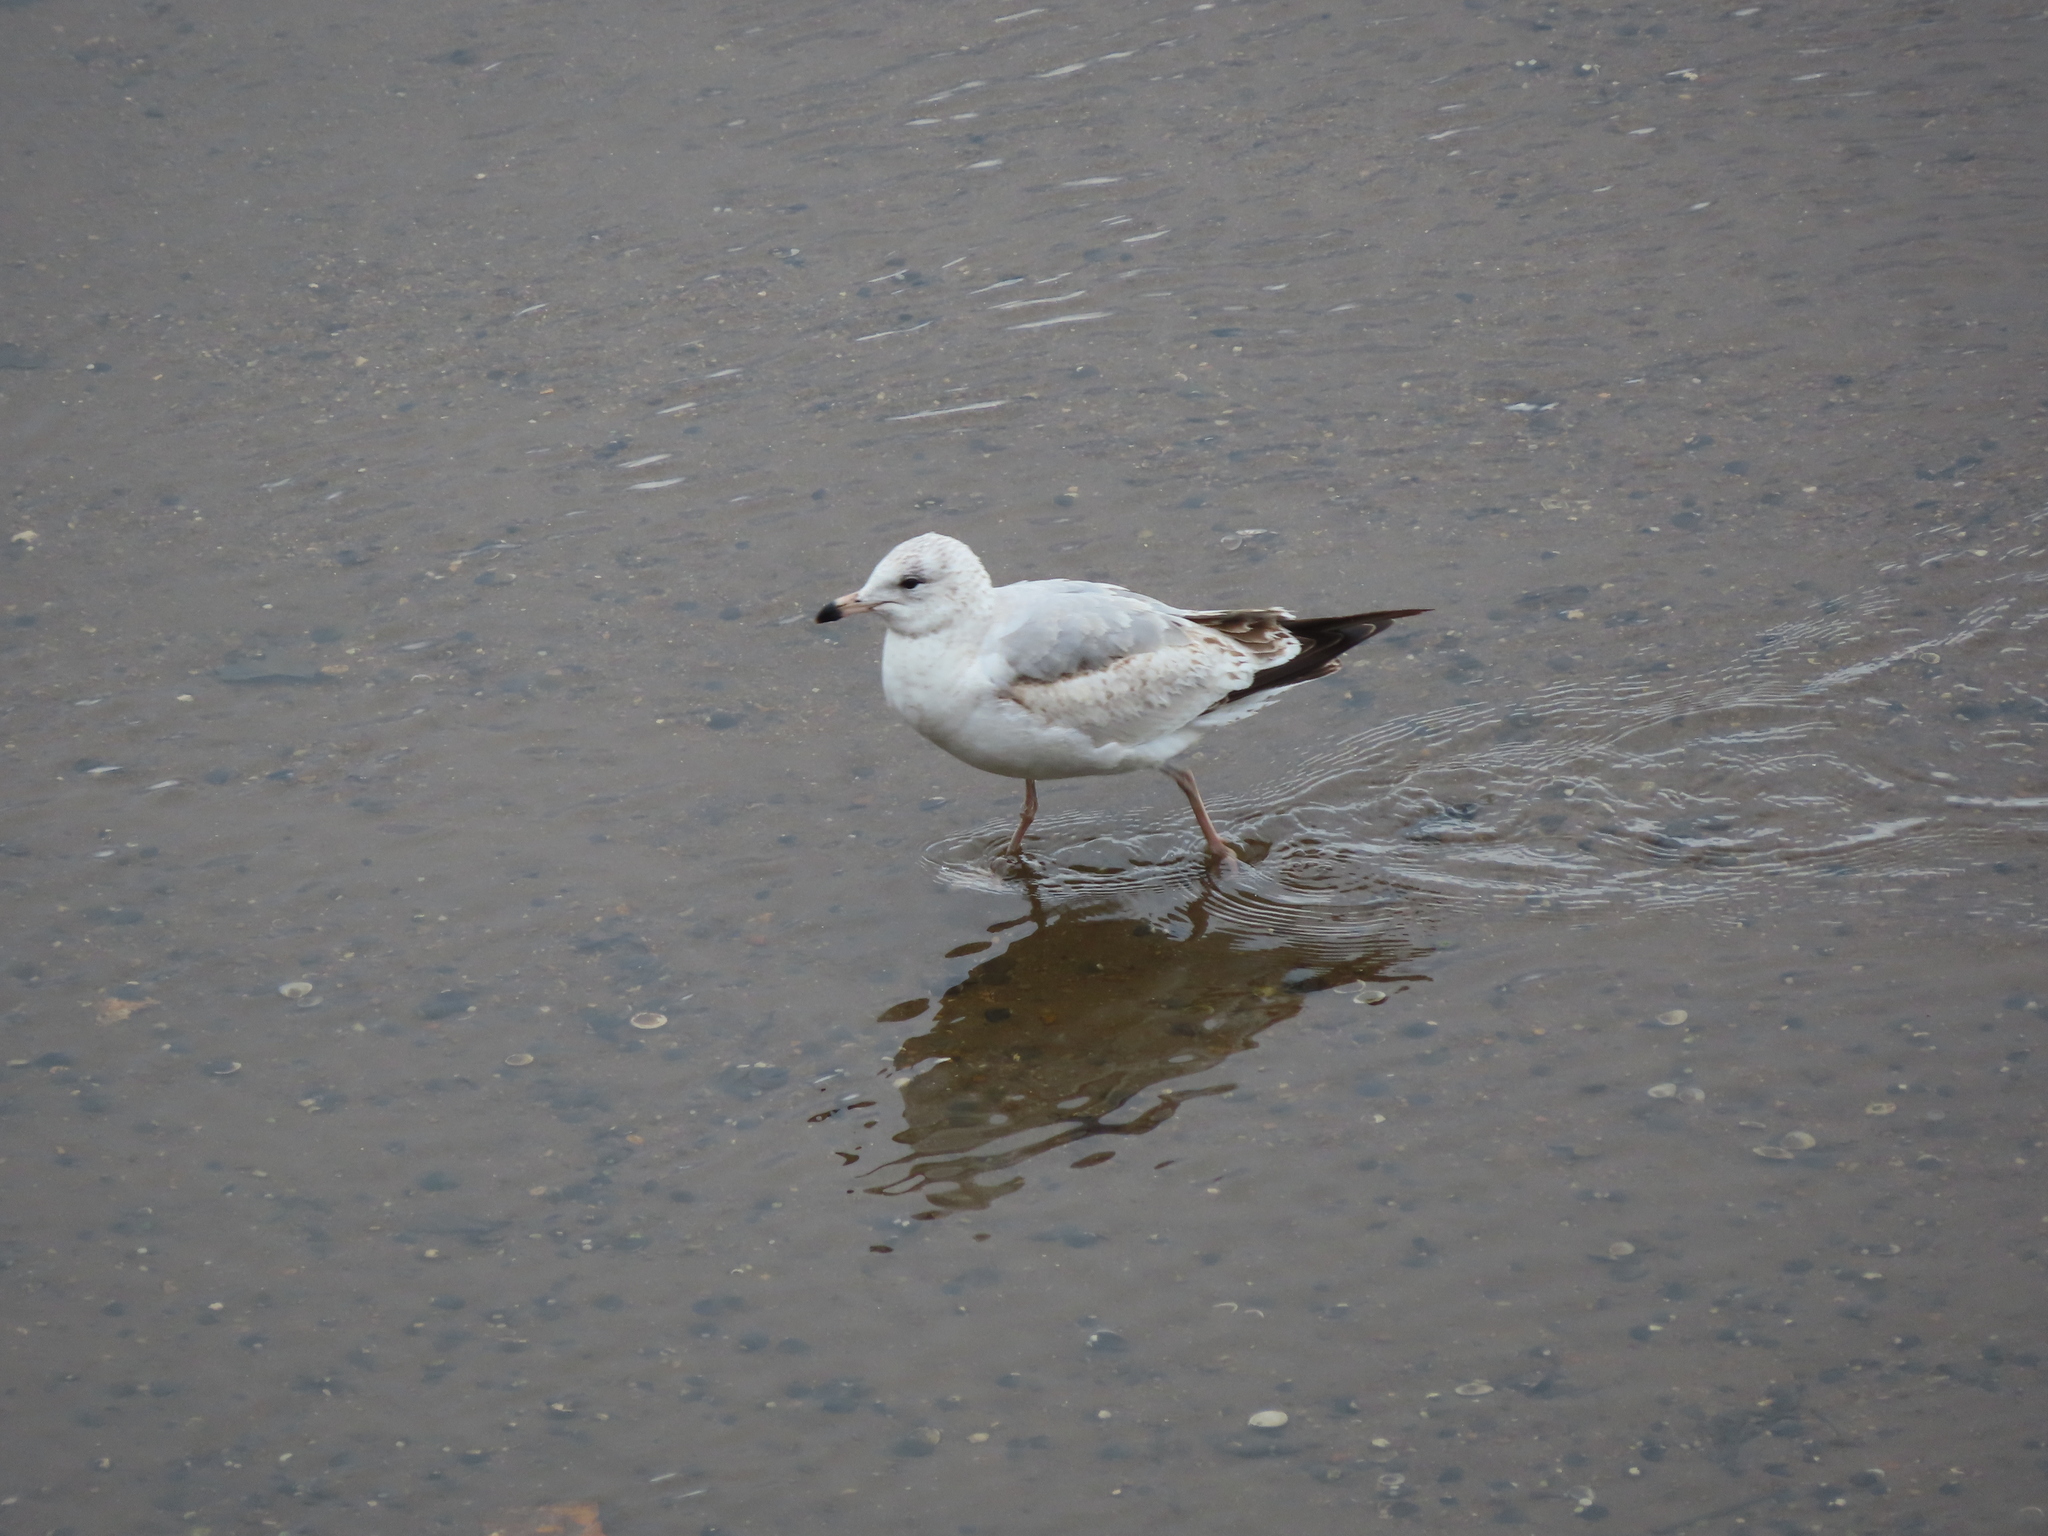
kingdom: Animalia
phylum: Chordata
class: Aves
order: Charadriiformes
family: Laridae
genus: Larus
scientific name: Larus delawarensis
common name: Ring-billed gull
